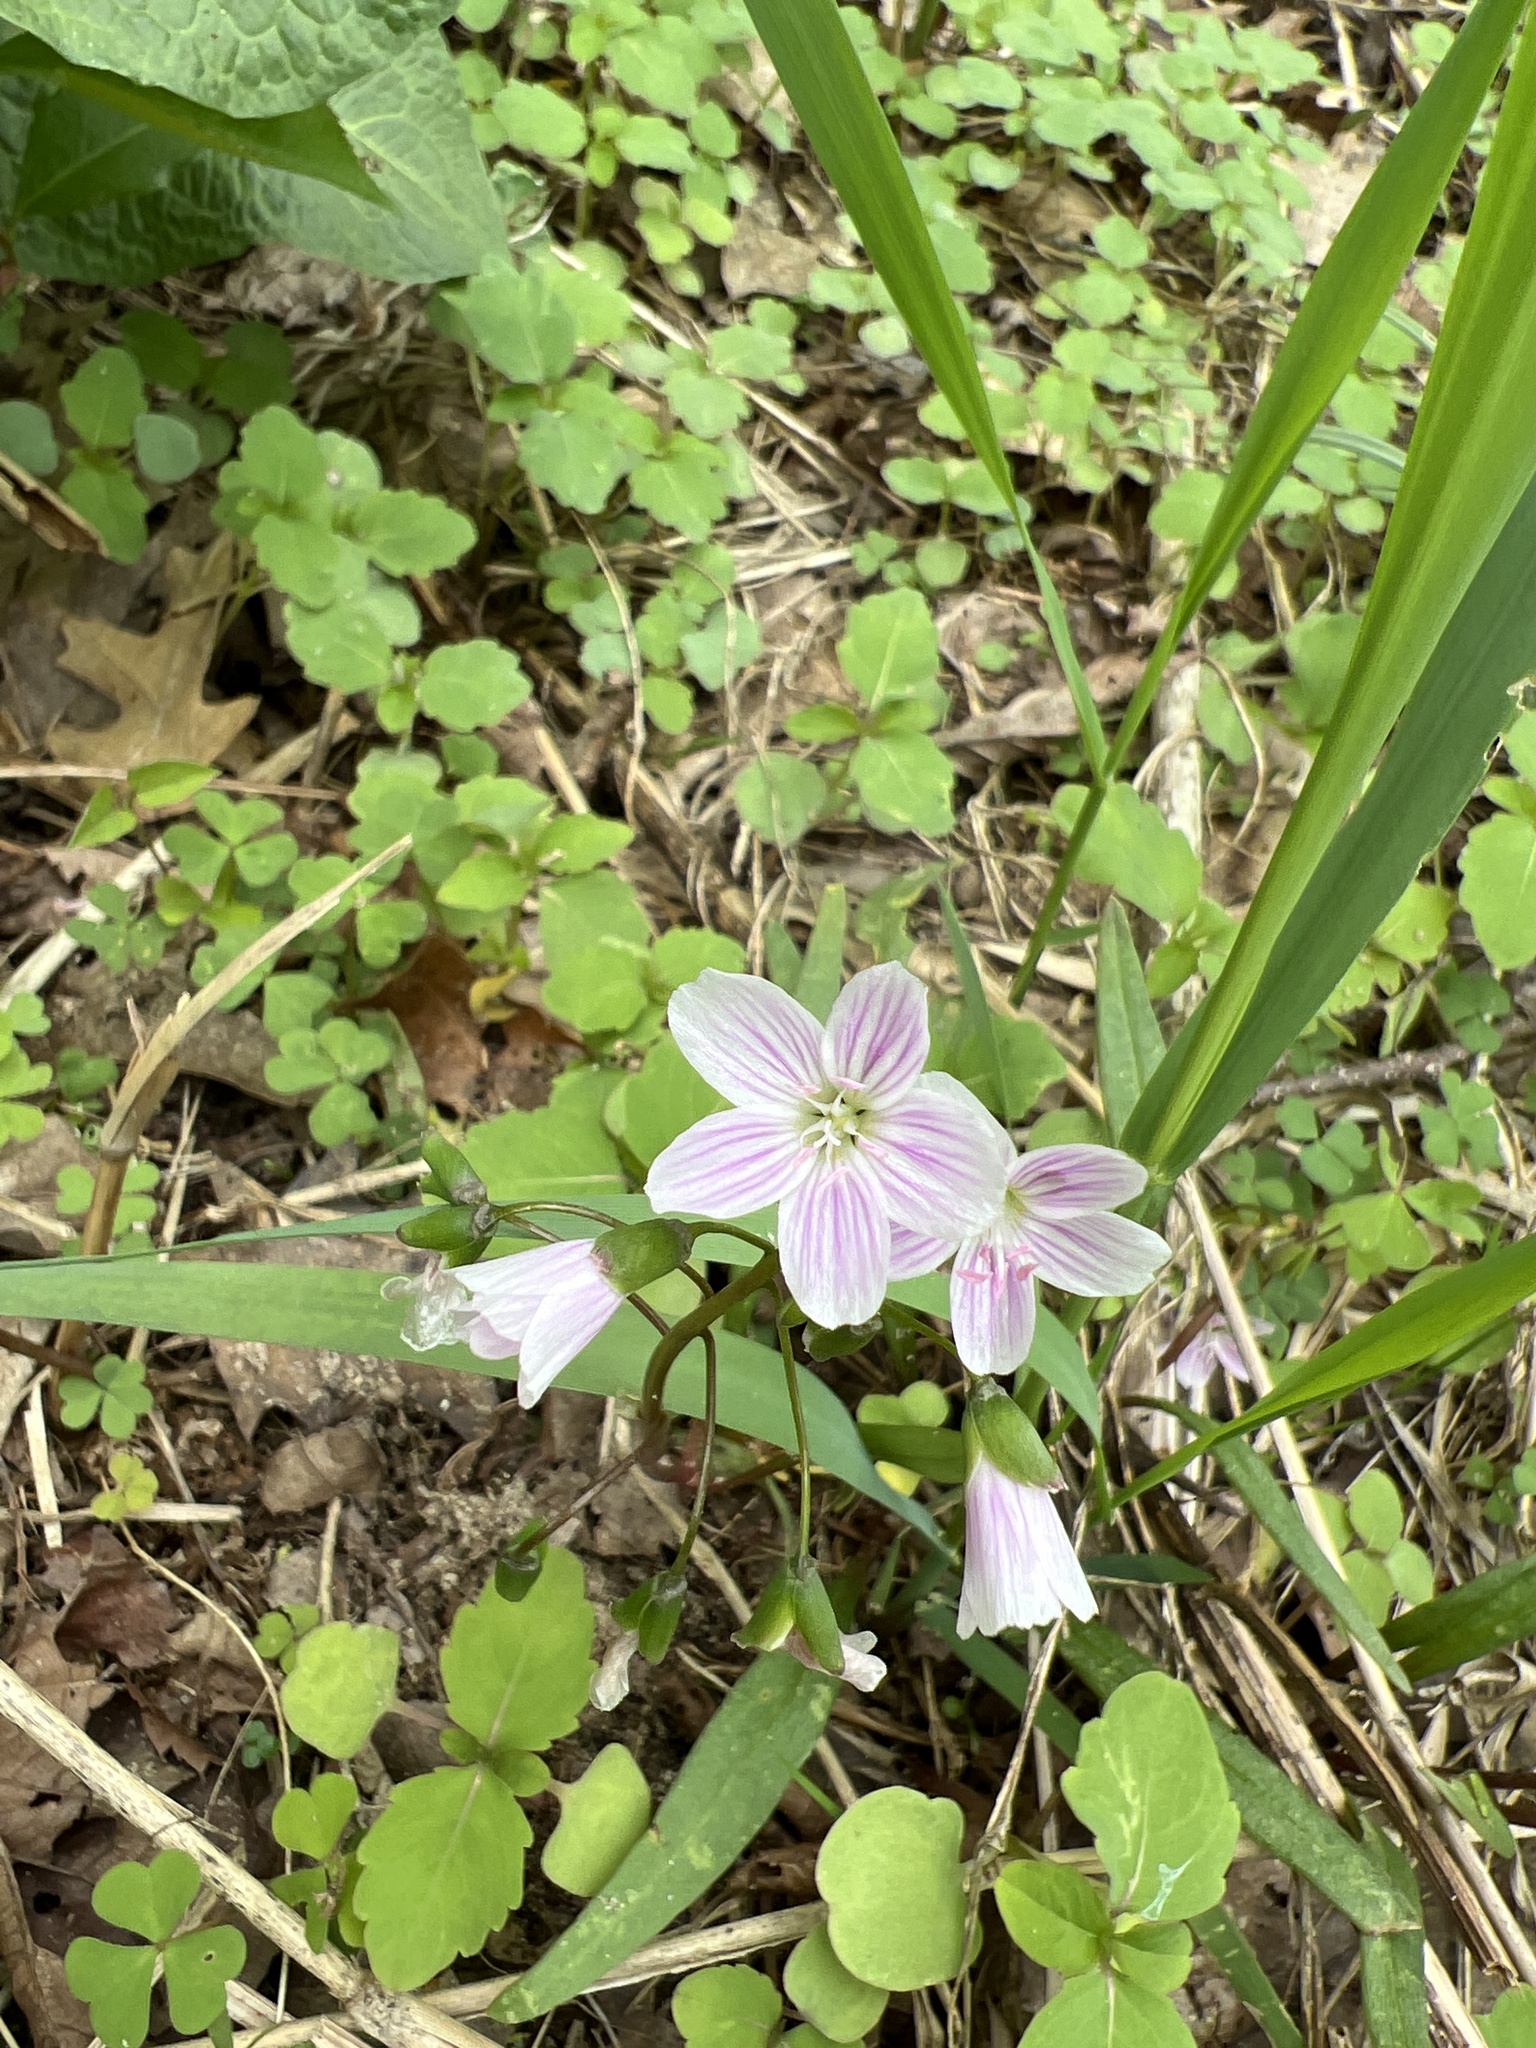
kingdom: Plantae
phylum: Tracheophyta
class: Magnoliopsida
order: Caryophyllales
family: Montiaceae
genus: Claytonia
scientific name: Claytonia virginica
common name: Virginia springbeauty
